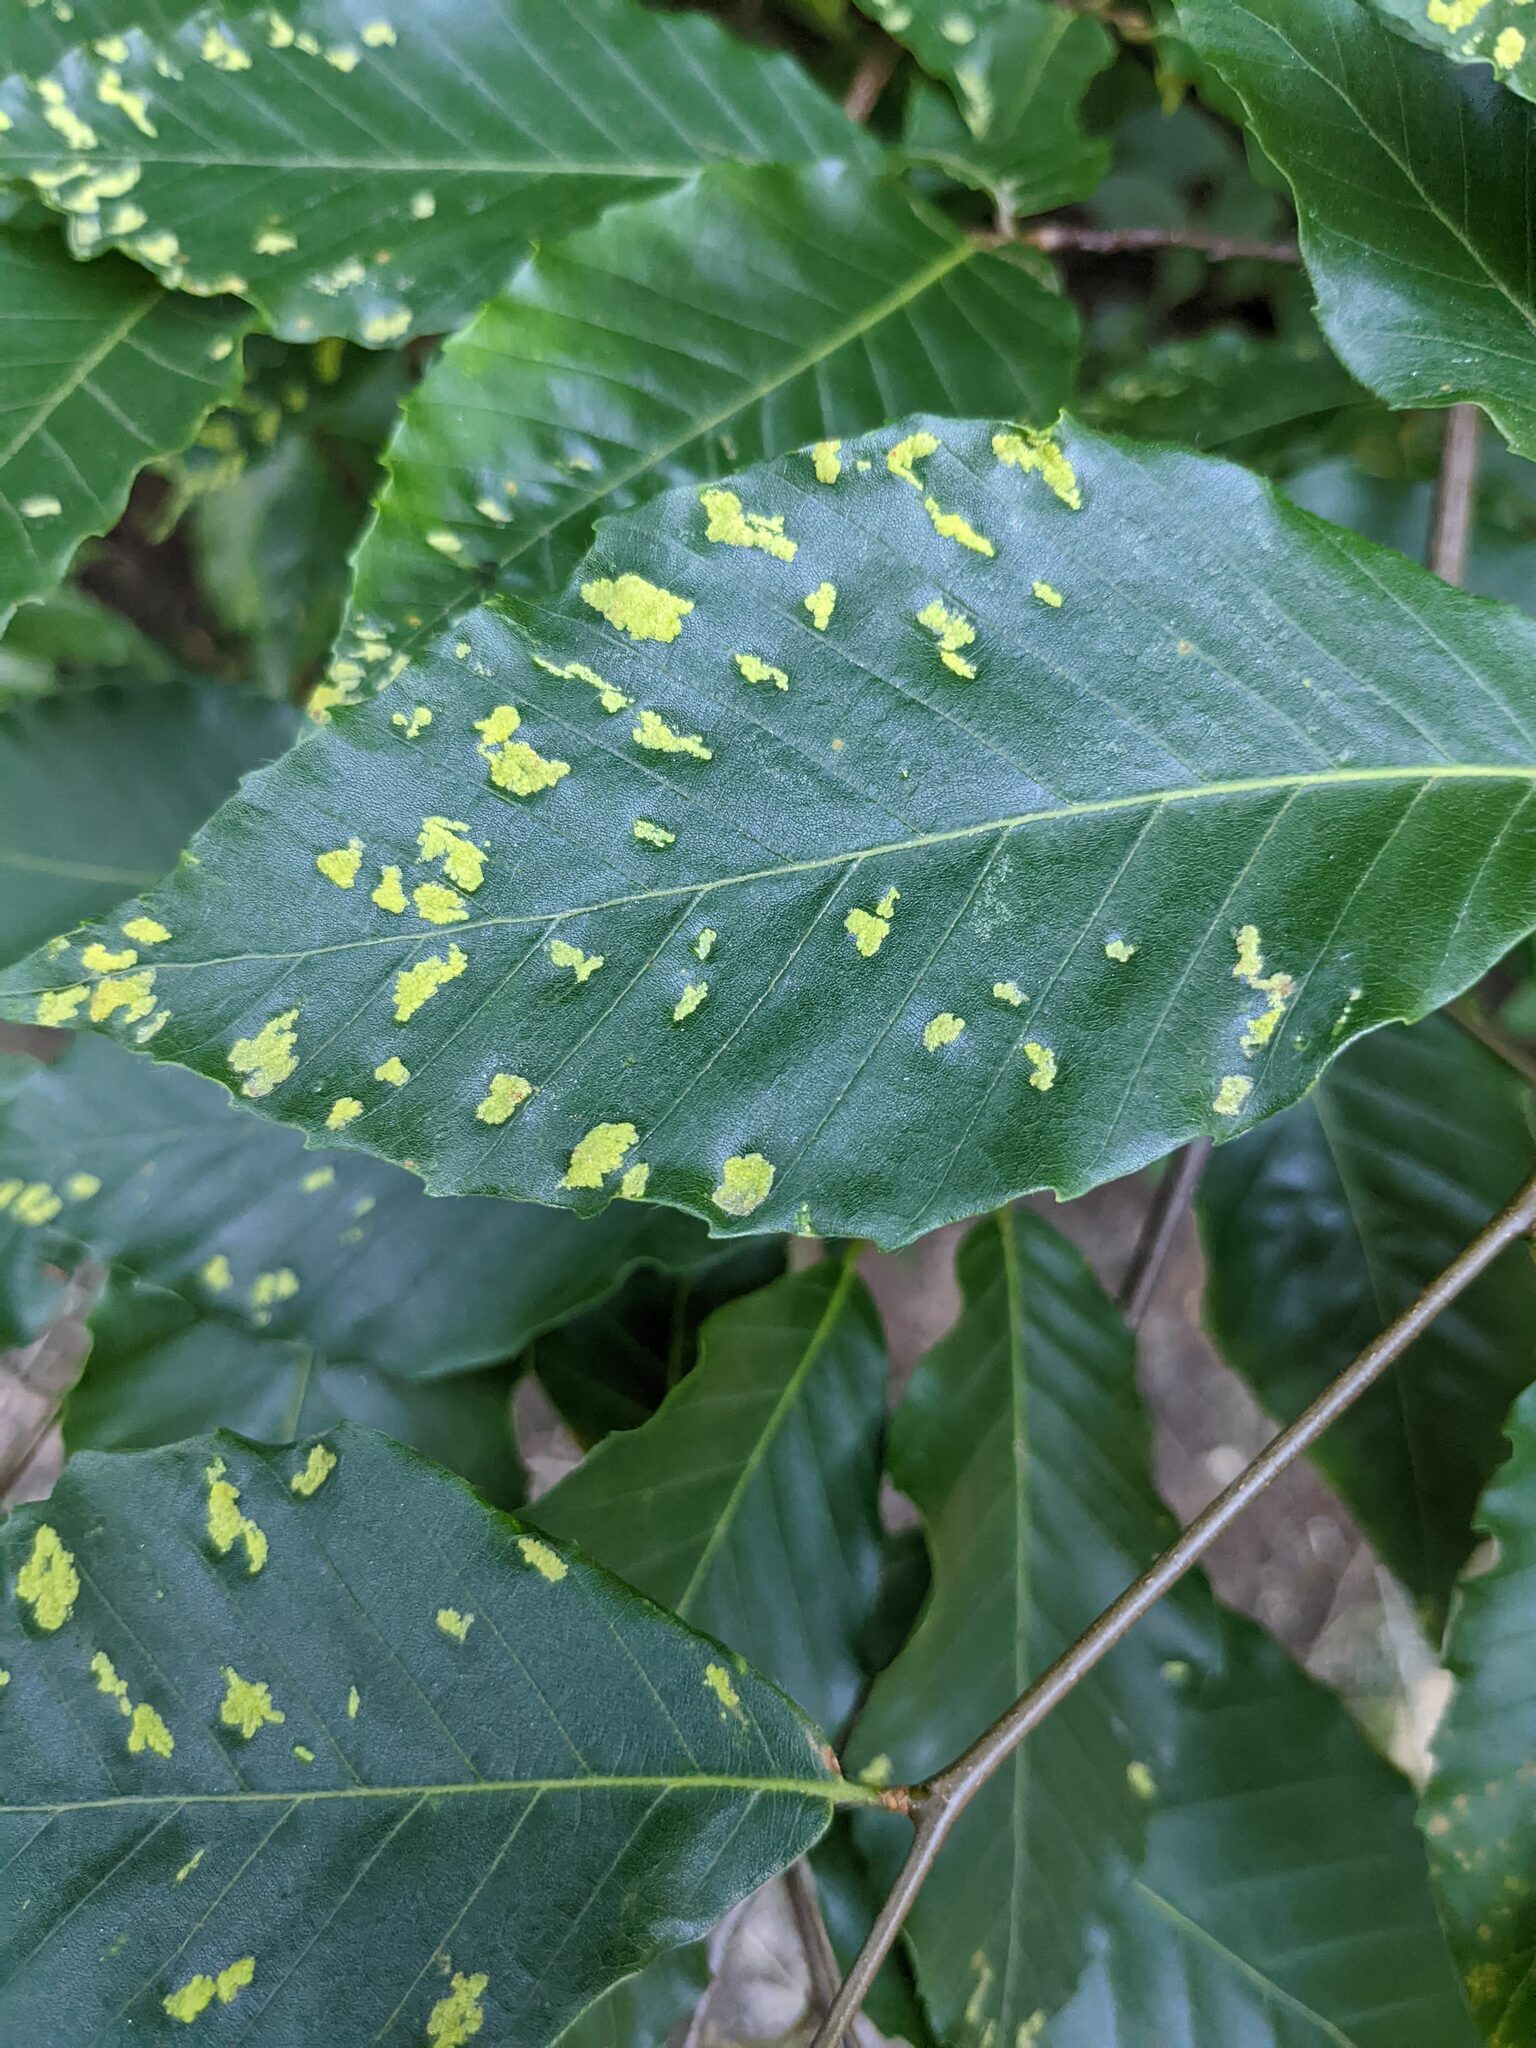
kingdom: Animalia
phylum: Arthropoda
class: Arachnida
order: Trombidiformes
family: Eriophyidae
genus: Acalitus
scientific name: Acalitus
